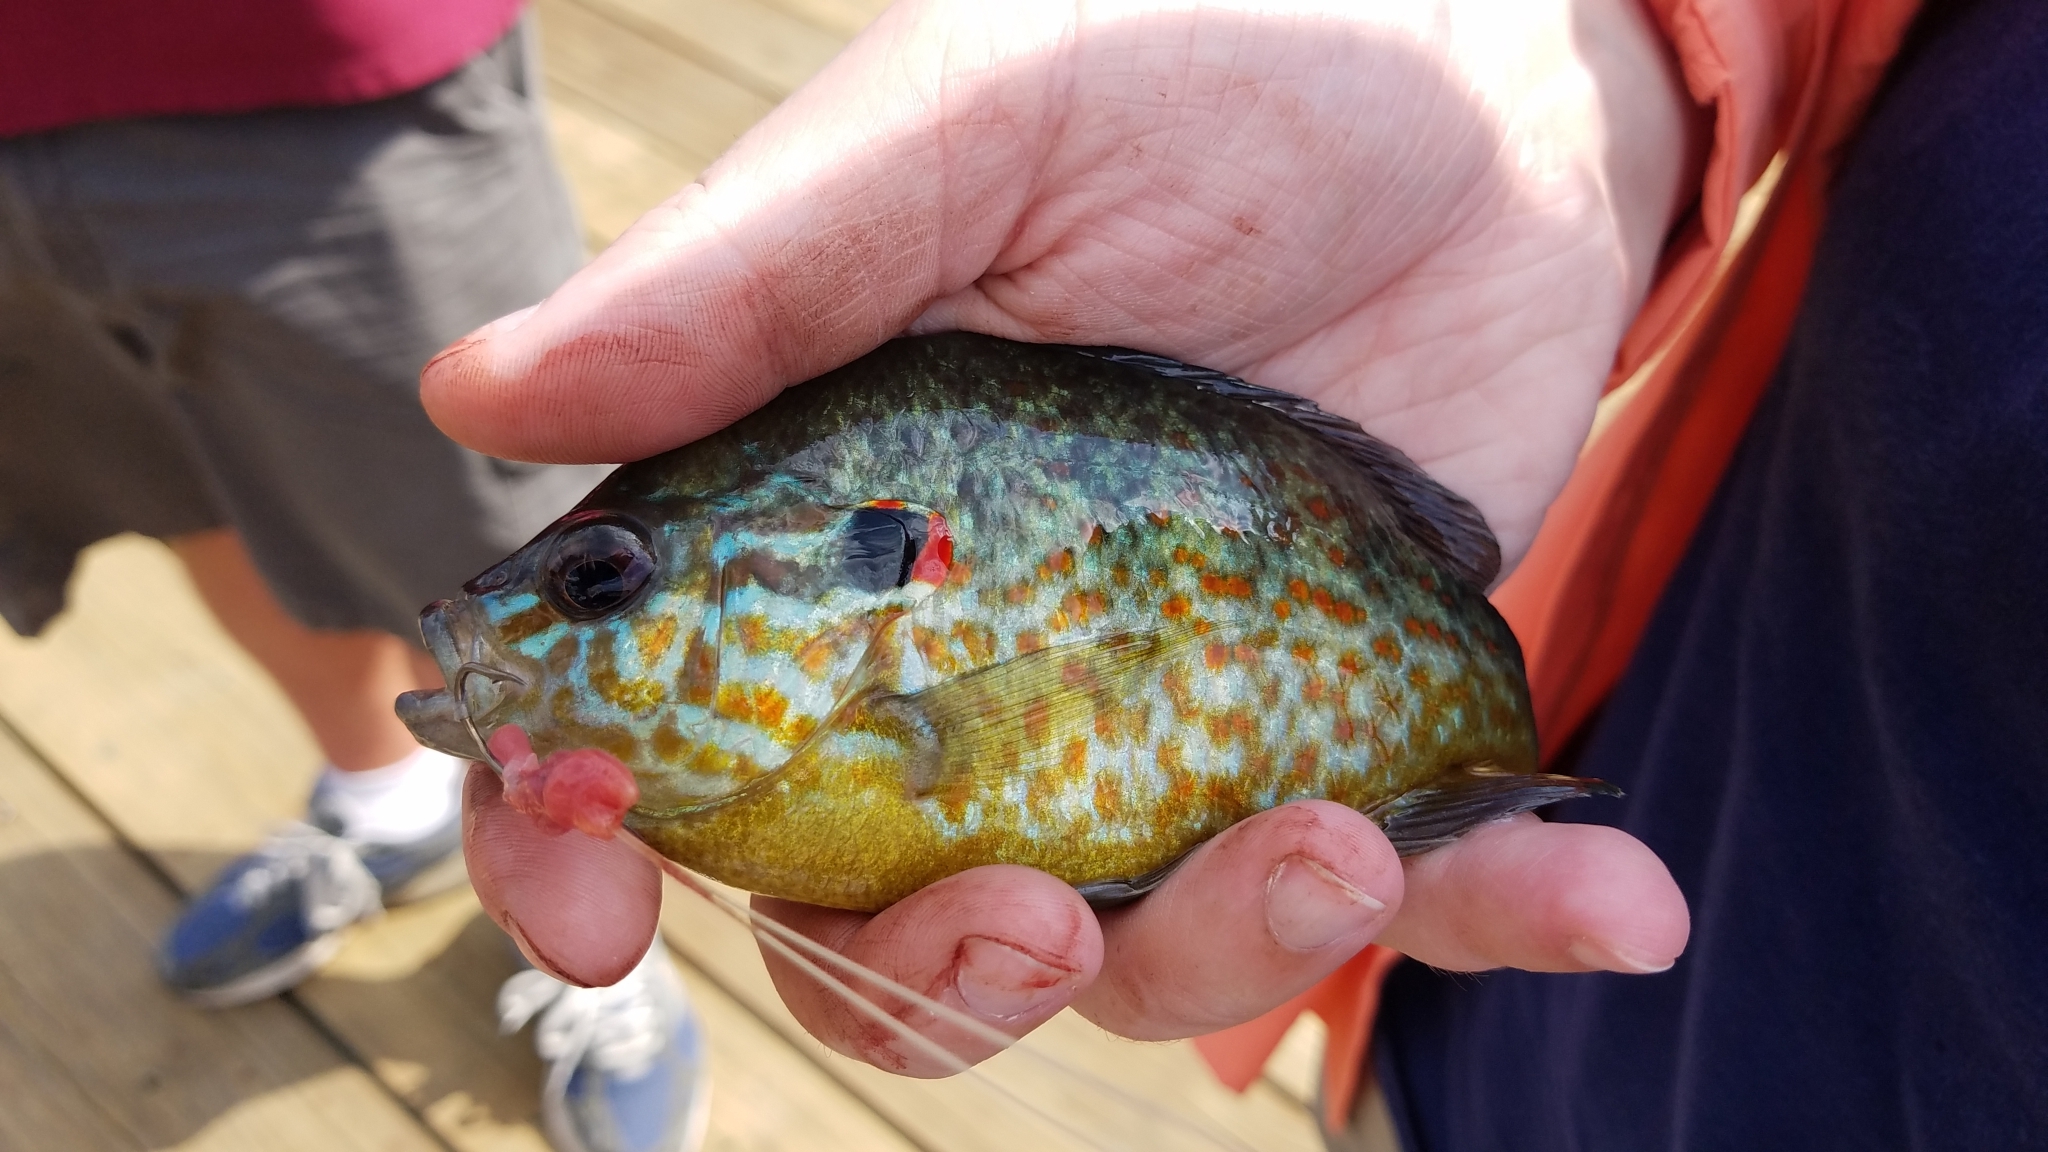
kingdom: Animalia
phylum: Chordata
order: Perciformes
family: Centrarchidae
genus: Lepomis
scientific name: Lepomis gibbosus
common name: Pumpkinseed
